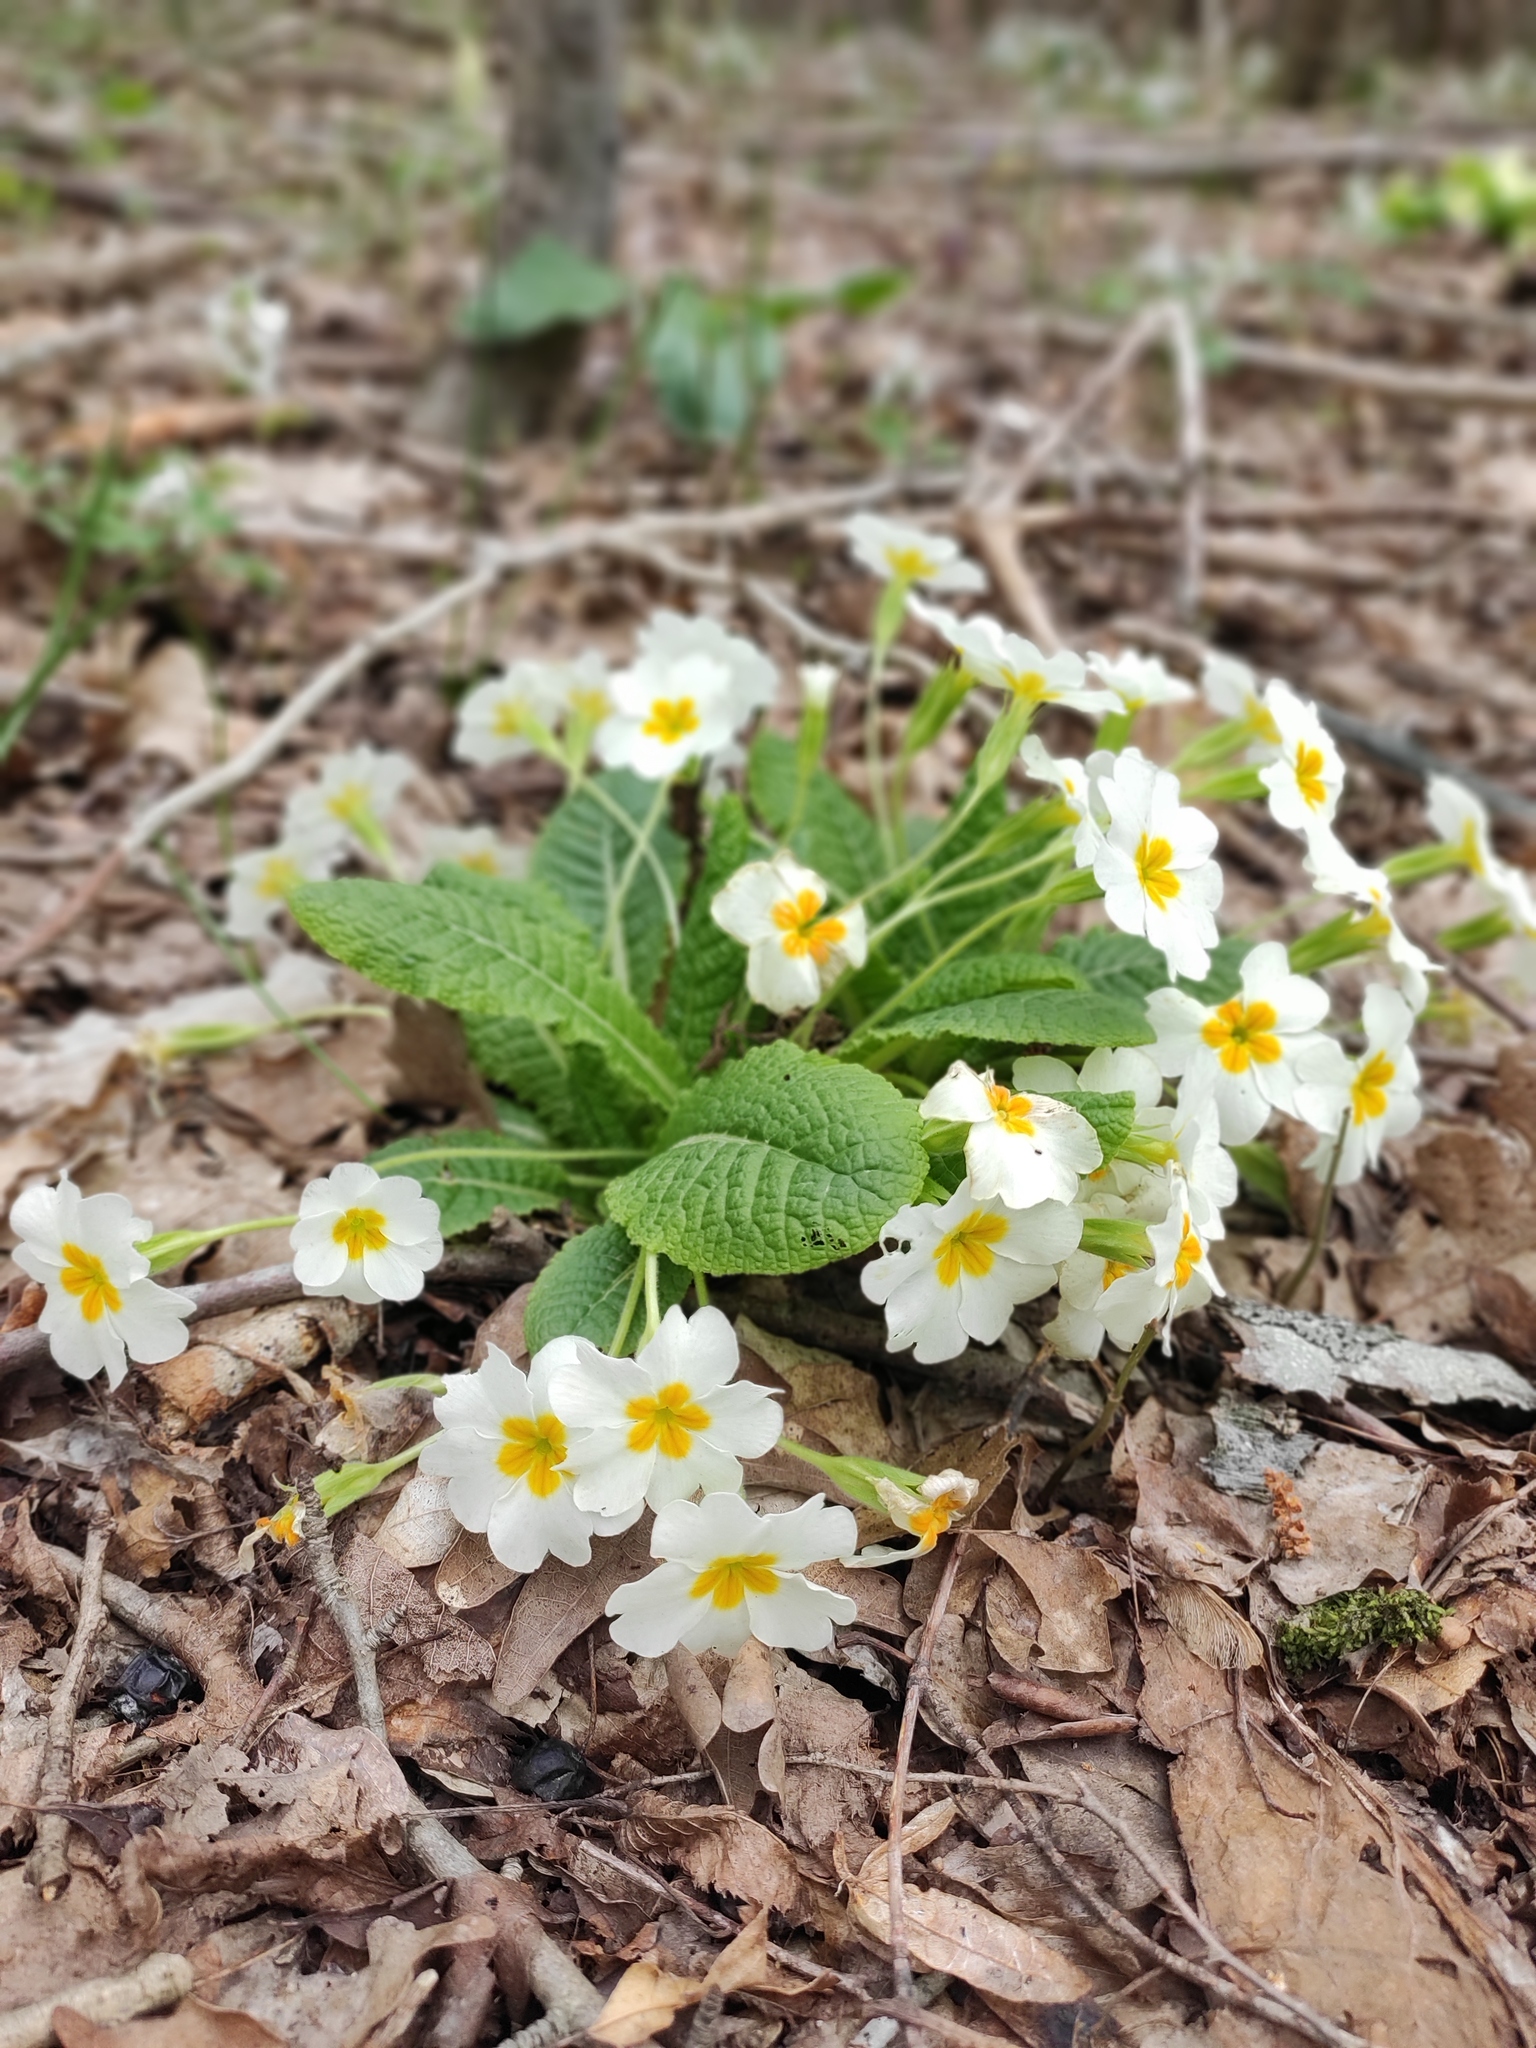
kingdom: Plantae
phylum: Tracheophyta
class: Magnoliopsida
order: Ericales
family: Primulaceae
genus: Primula
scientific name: Primula vulgaris
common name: Primrose
